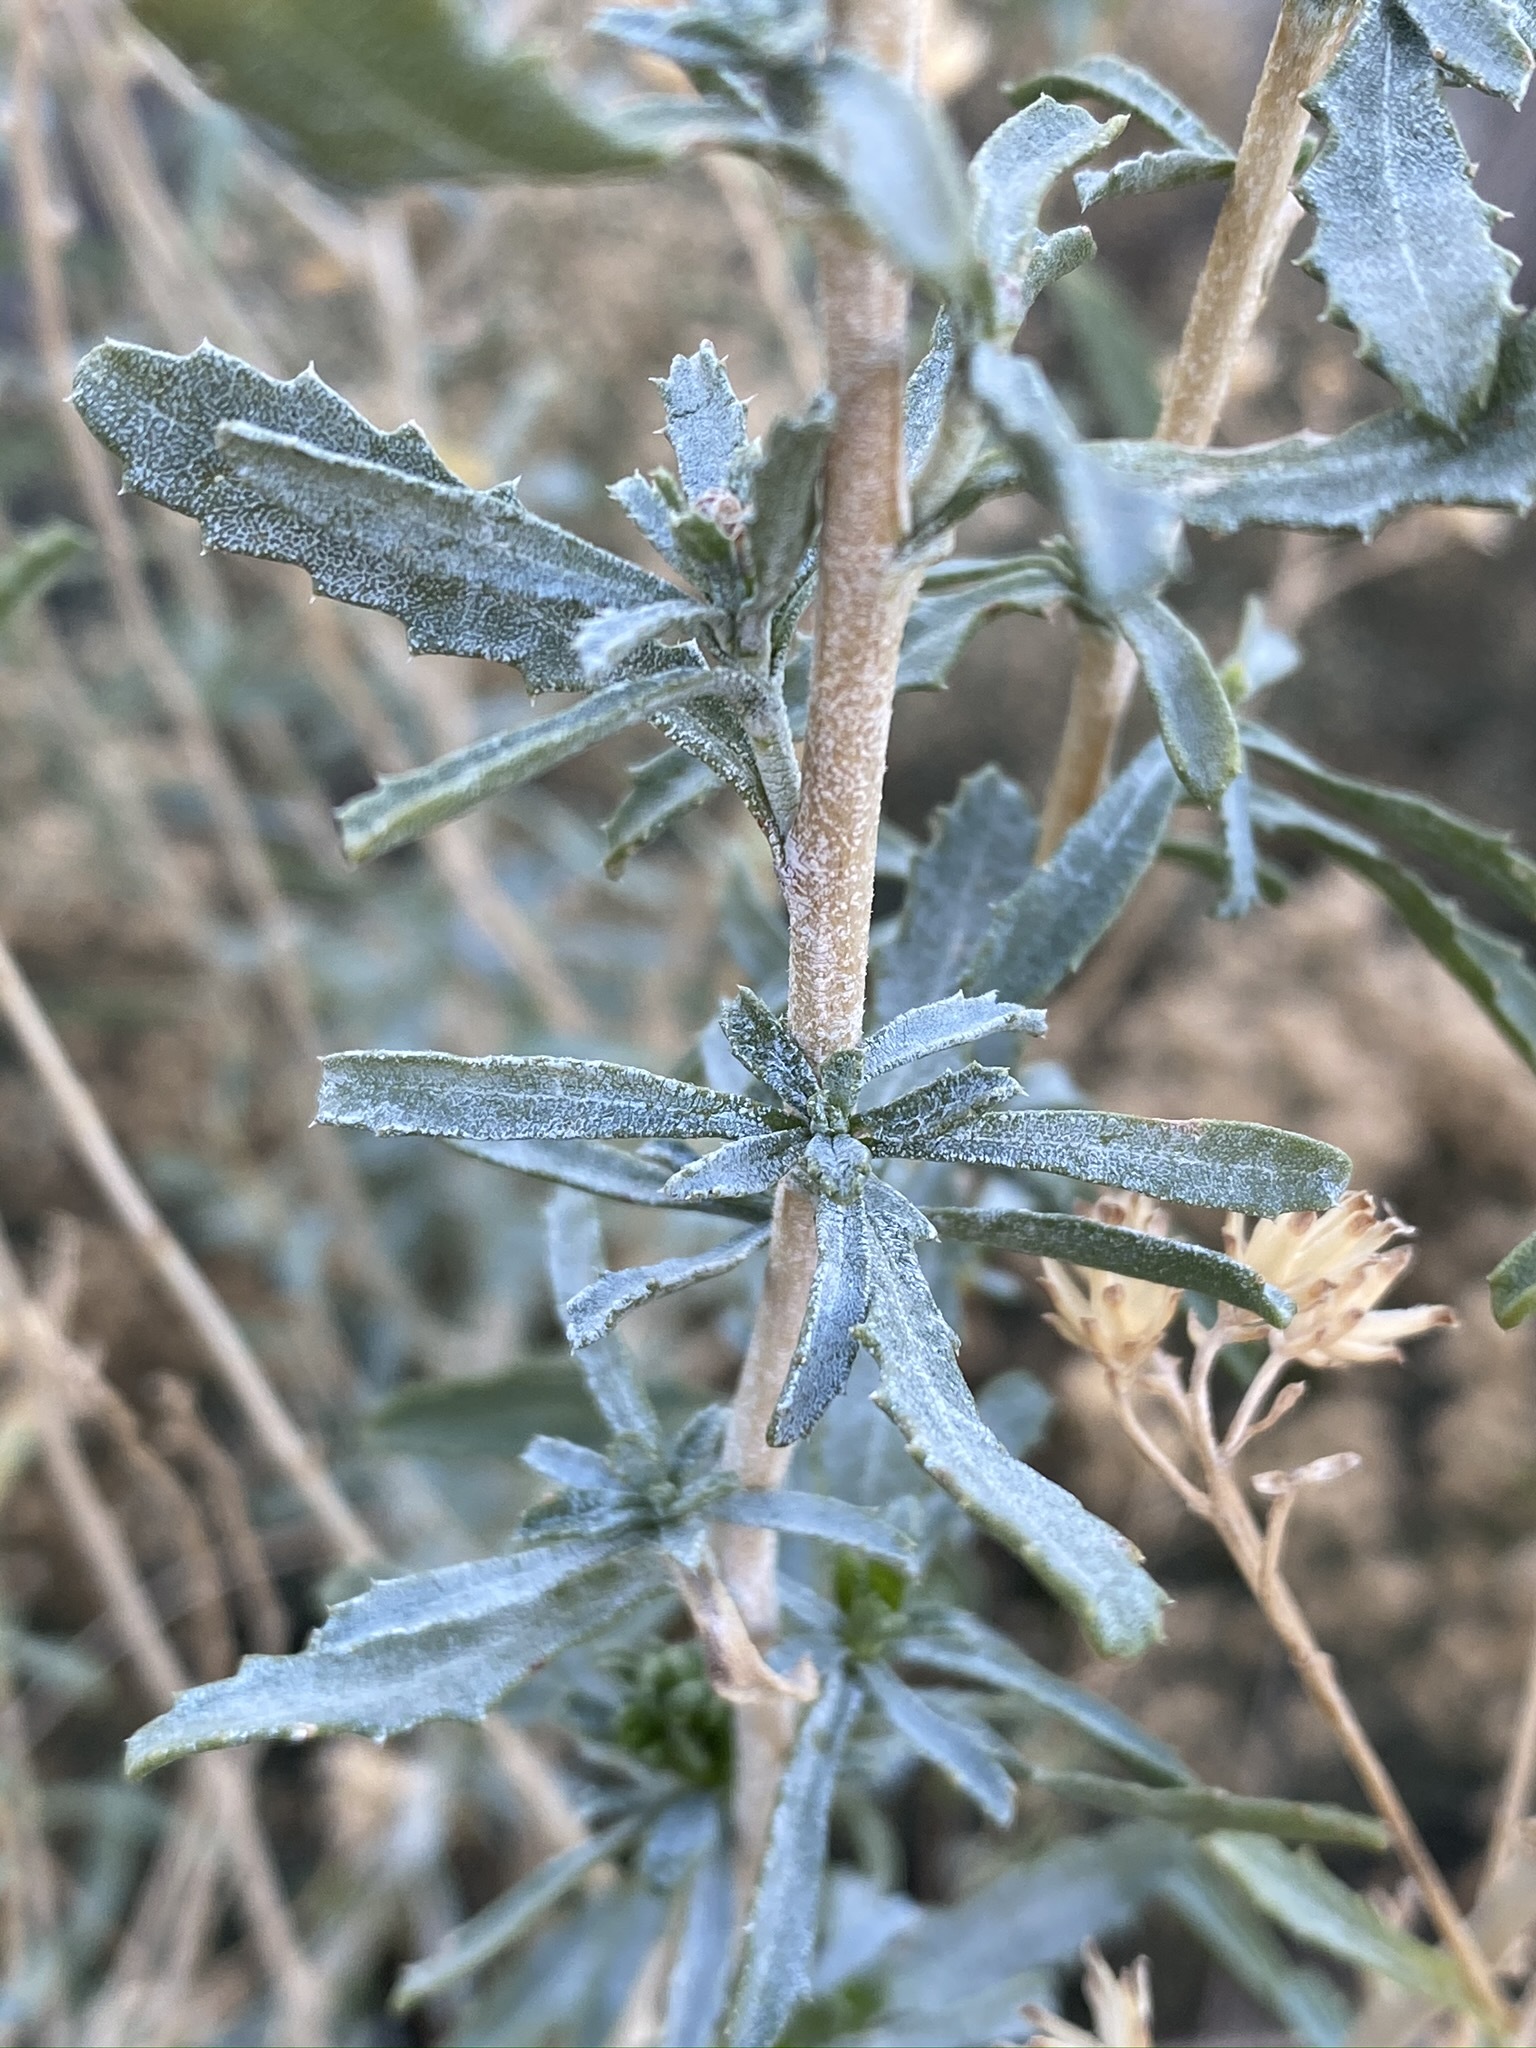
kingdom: Plantae
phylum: Tracheophyta
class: Magnoliopsida
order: Asterales
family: Asteraceae
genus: Isocoma
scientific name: Isocoma acradenia
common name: Alkali jimmyweed
